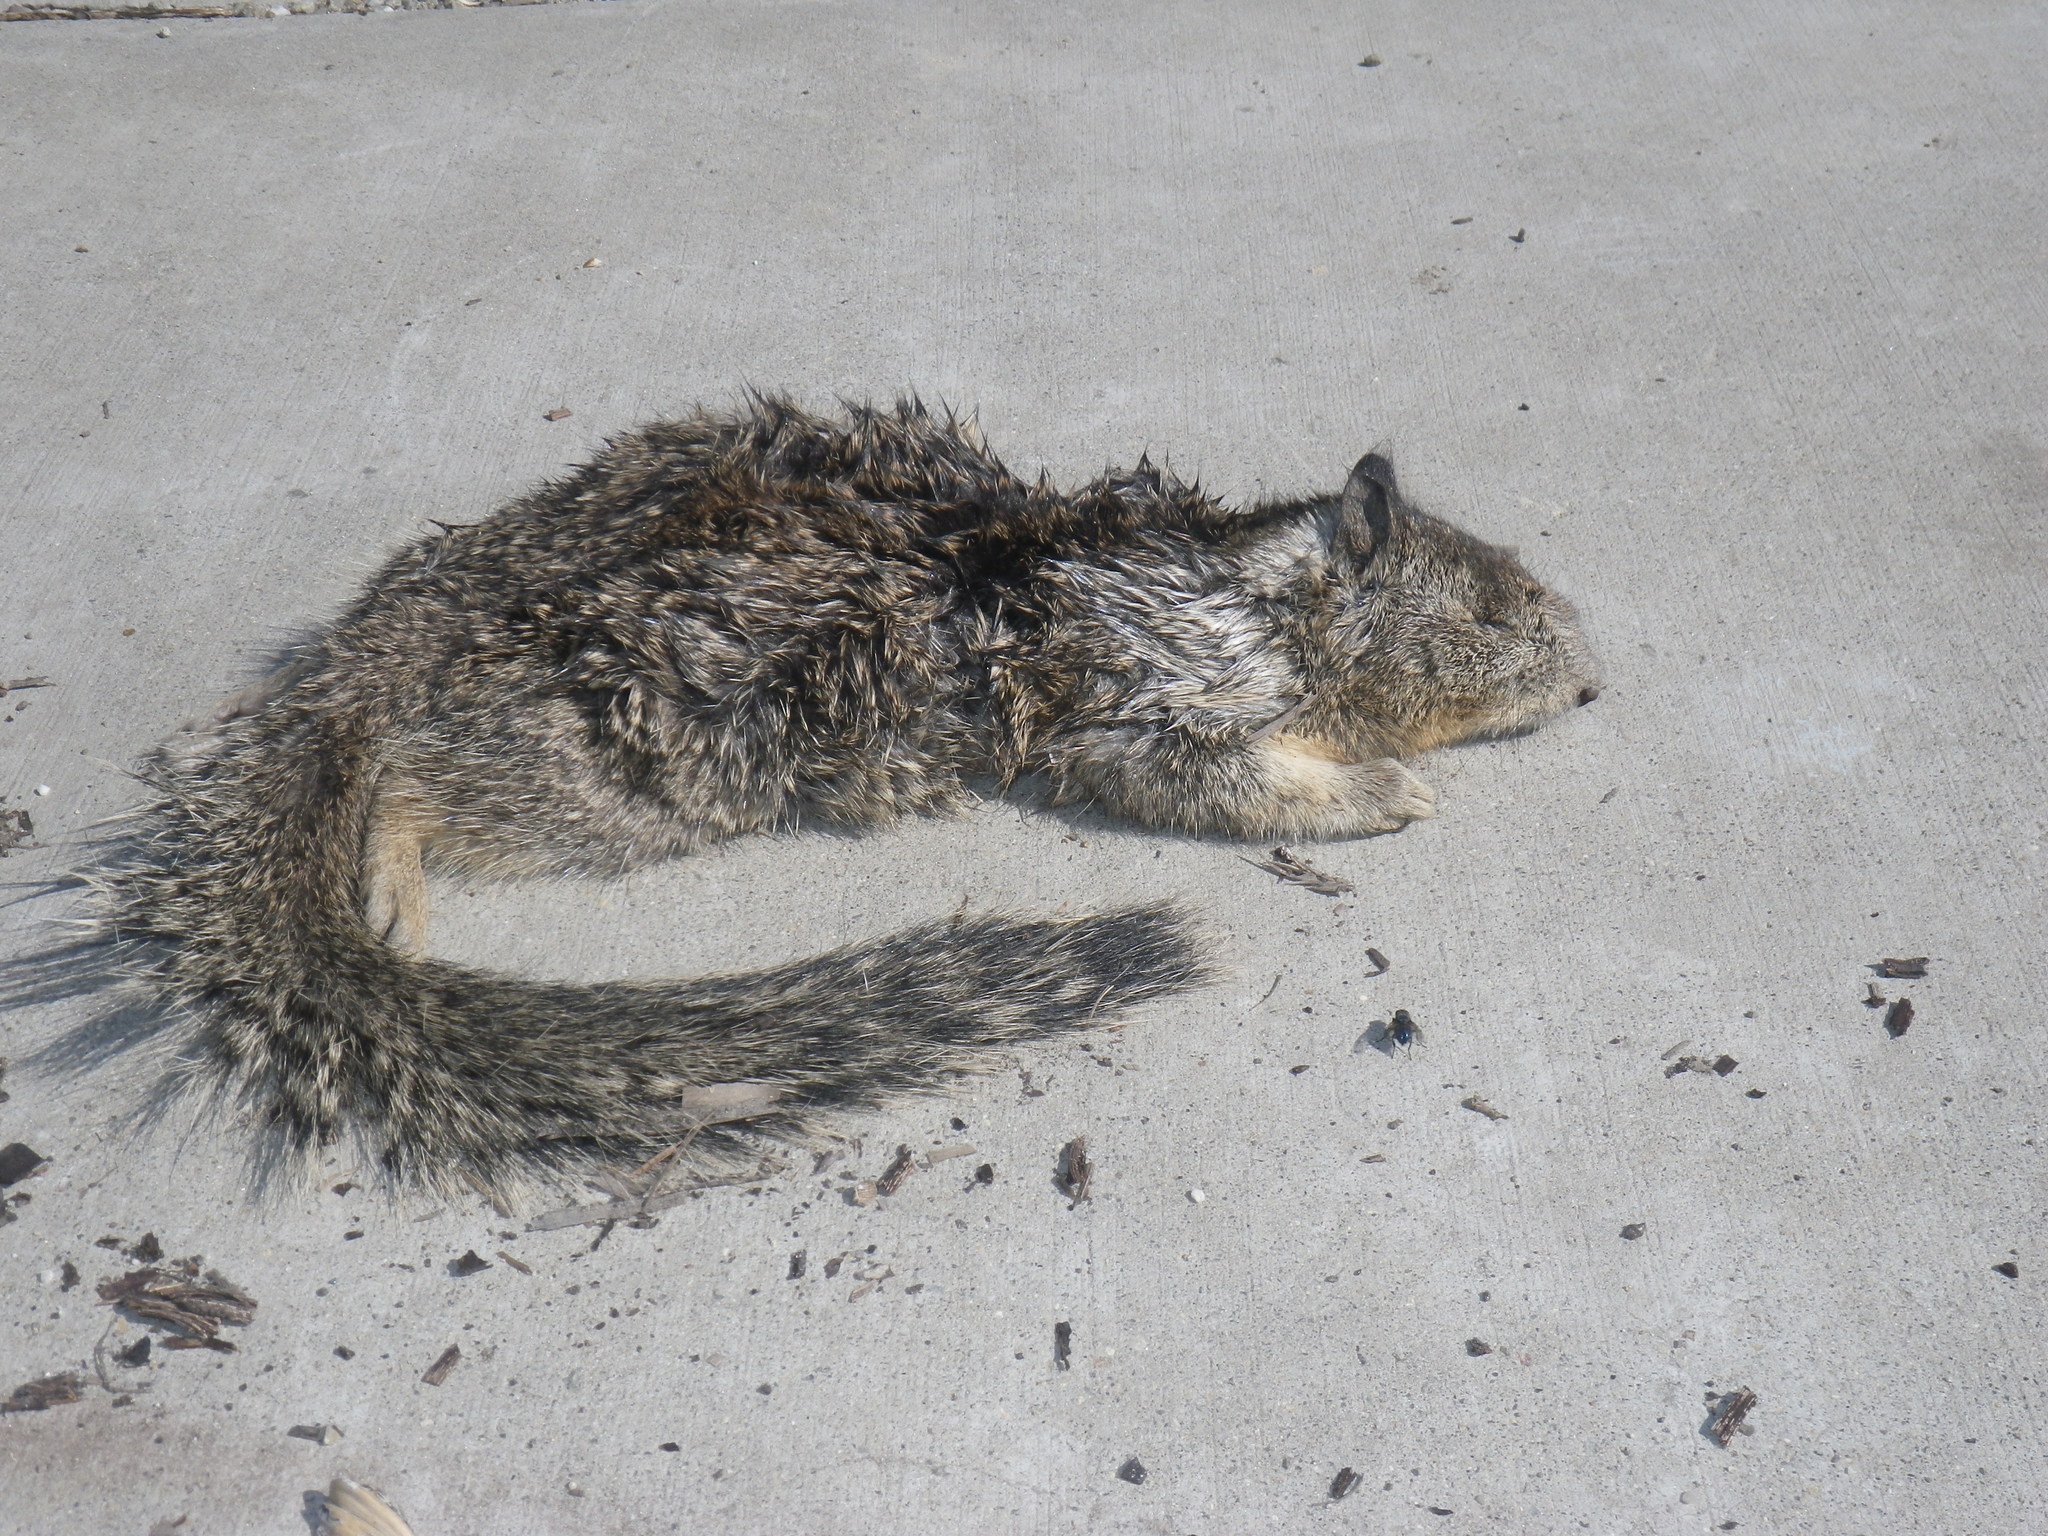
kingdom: Animalia
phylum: Chordata
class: Mammalia
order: Rodentia
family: Sciuridae
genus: Otospermophilus
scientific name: Otospermophilus beecheyi
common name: California ground squirrel
